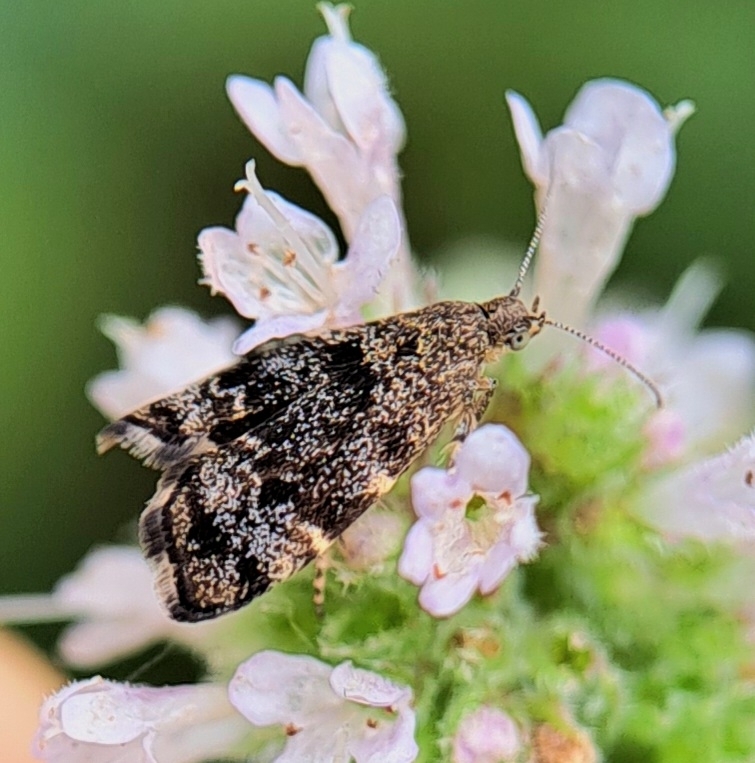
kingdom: Animalia
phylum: Arthropoda
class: Insecta
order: Lepidoptera
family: Choreutidae
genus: Anthophila
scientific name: Anthophila fabriciana
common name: Nettle-tap
